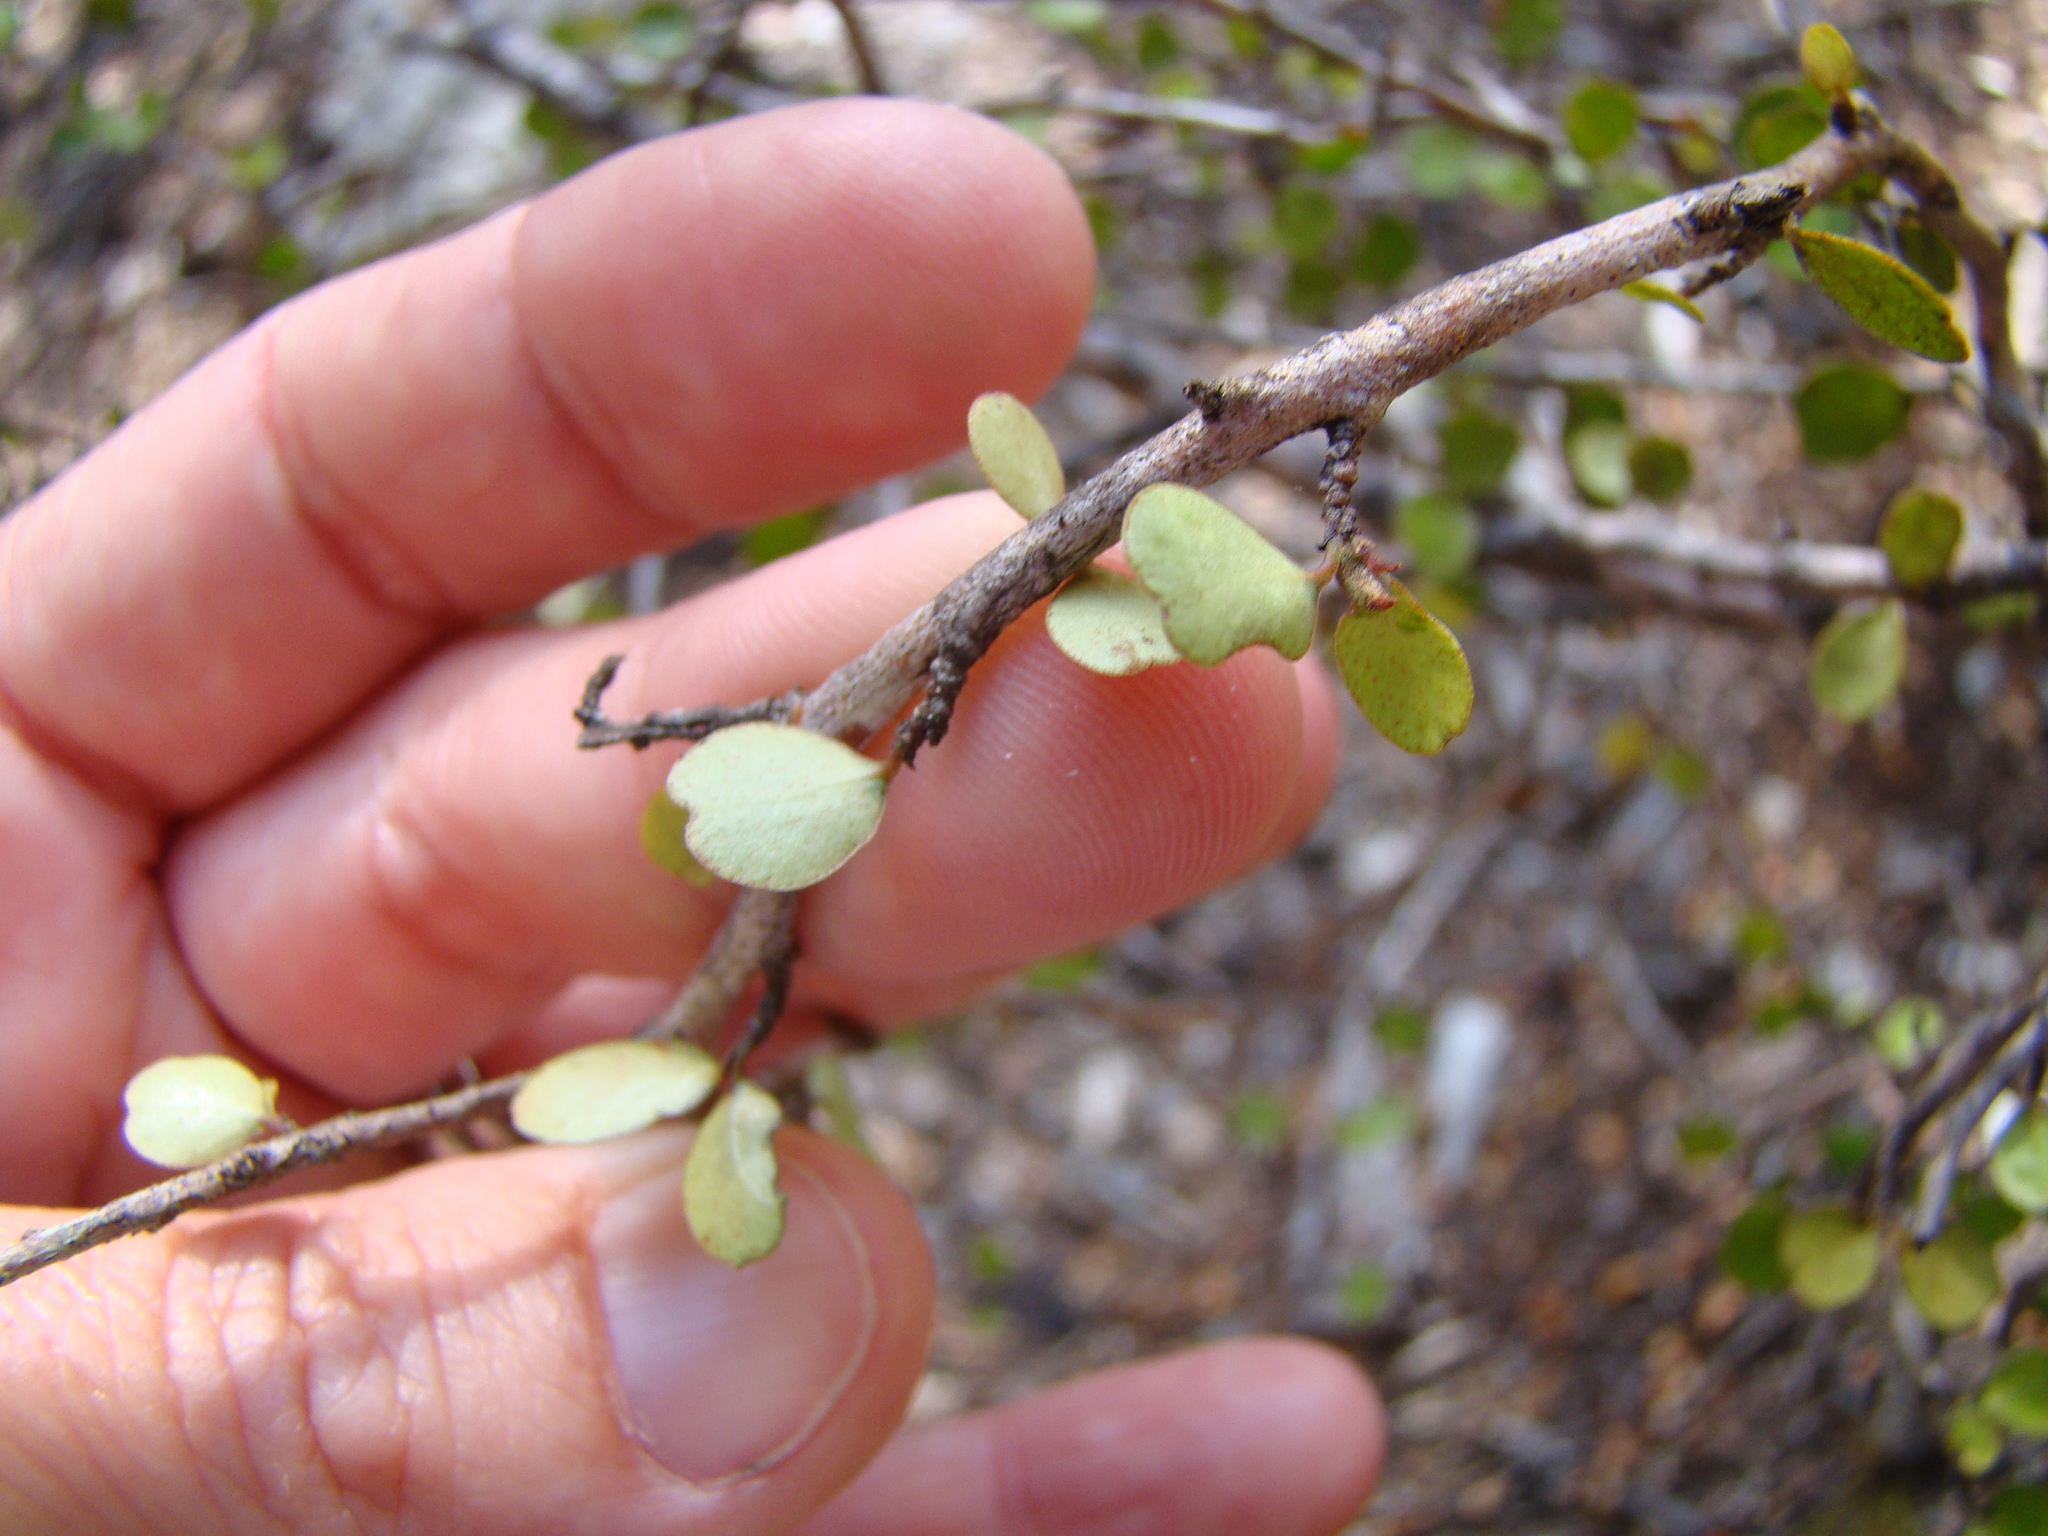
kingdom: Plantae
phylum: Tracheophyta
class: Magnoliopsida
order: Ericales
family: Primulaceae
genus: Myrsine
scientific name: Myrsine divaricata
